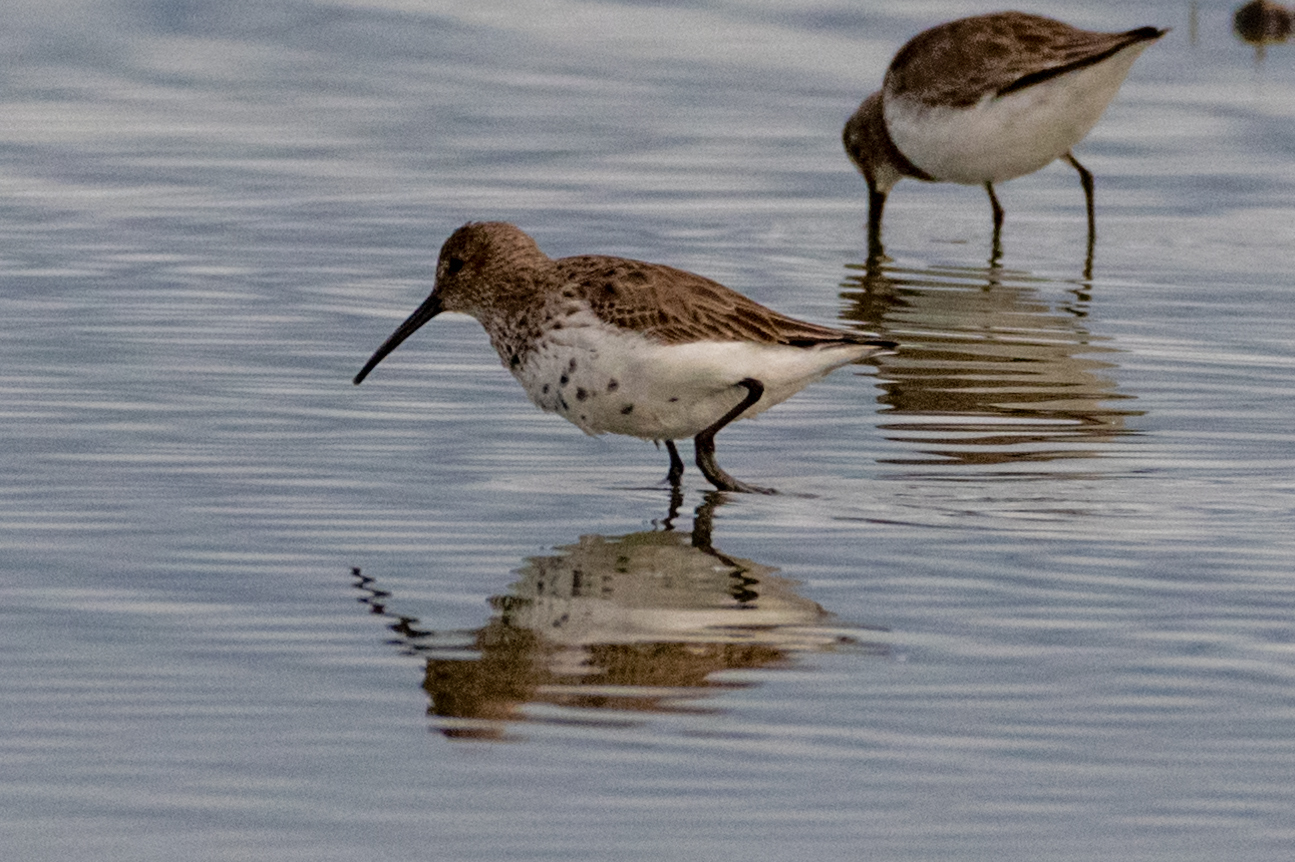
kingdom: Animalia
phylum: Chordata
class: Aves
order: Charadriiformes
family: Scolopacidae
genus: Calidris
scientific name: Calidris alpina
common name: Dunlin
